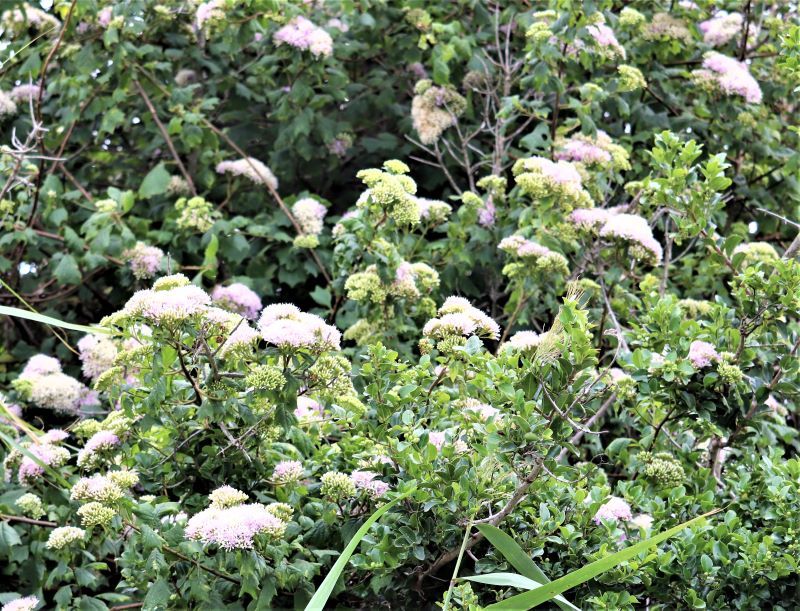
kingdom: Plantae
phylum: Tracheophyta
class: Magnoliopsida
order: Asterales
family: Asteraceae
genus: Gymnanthemum
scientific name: Gymnanthemum capense
